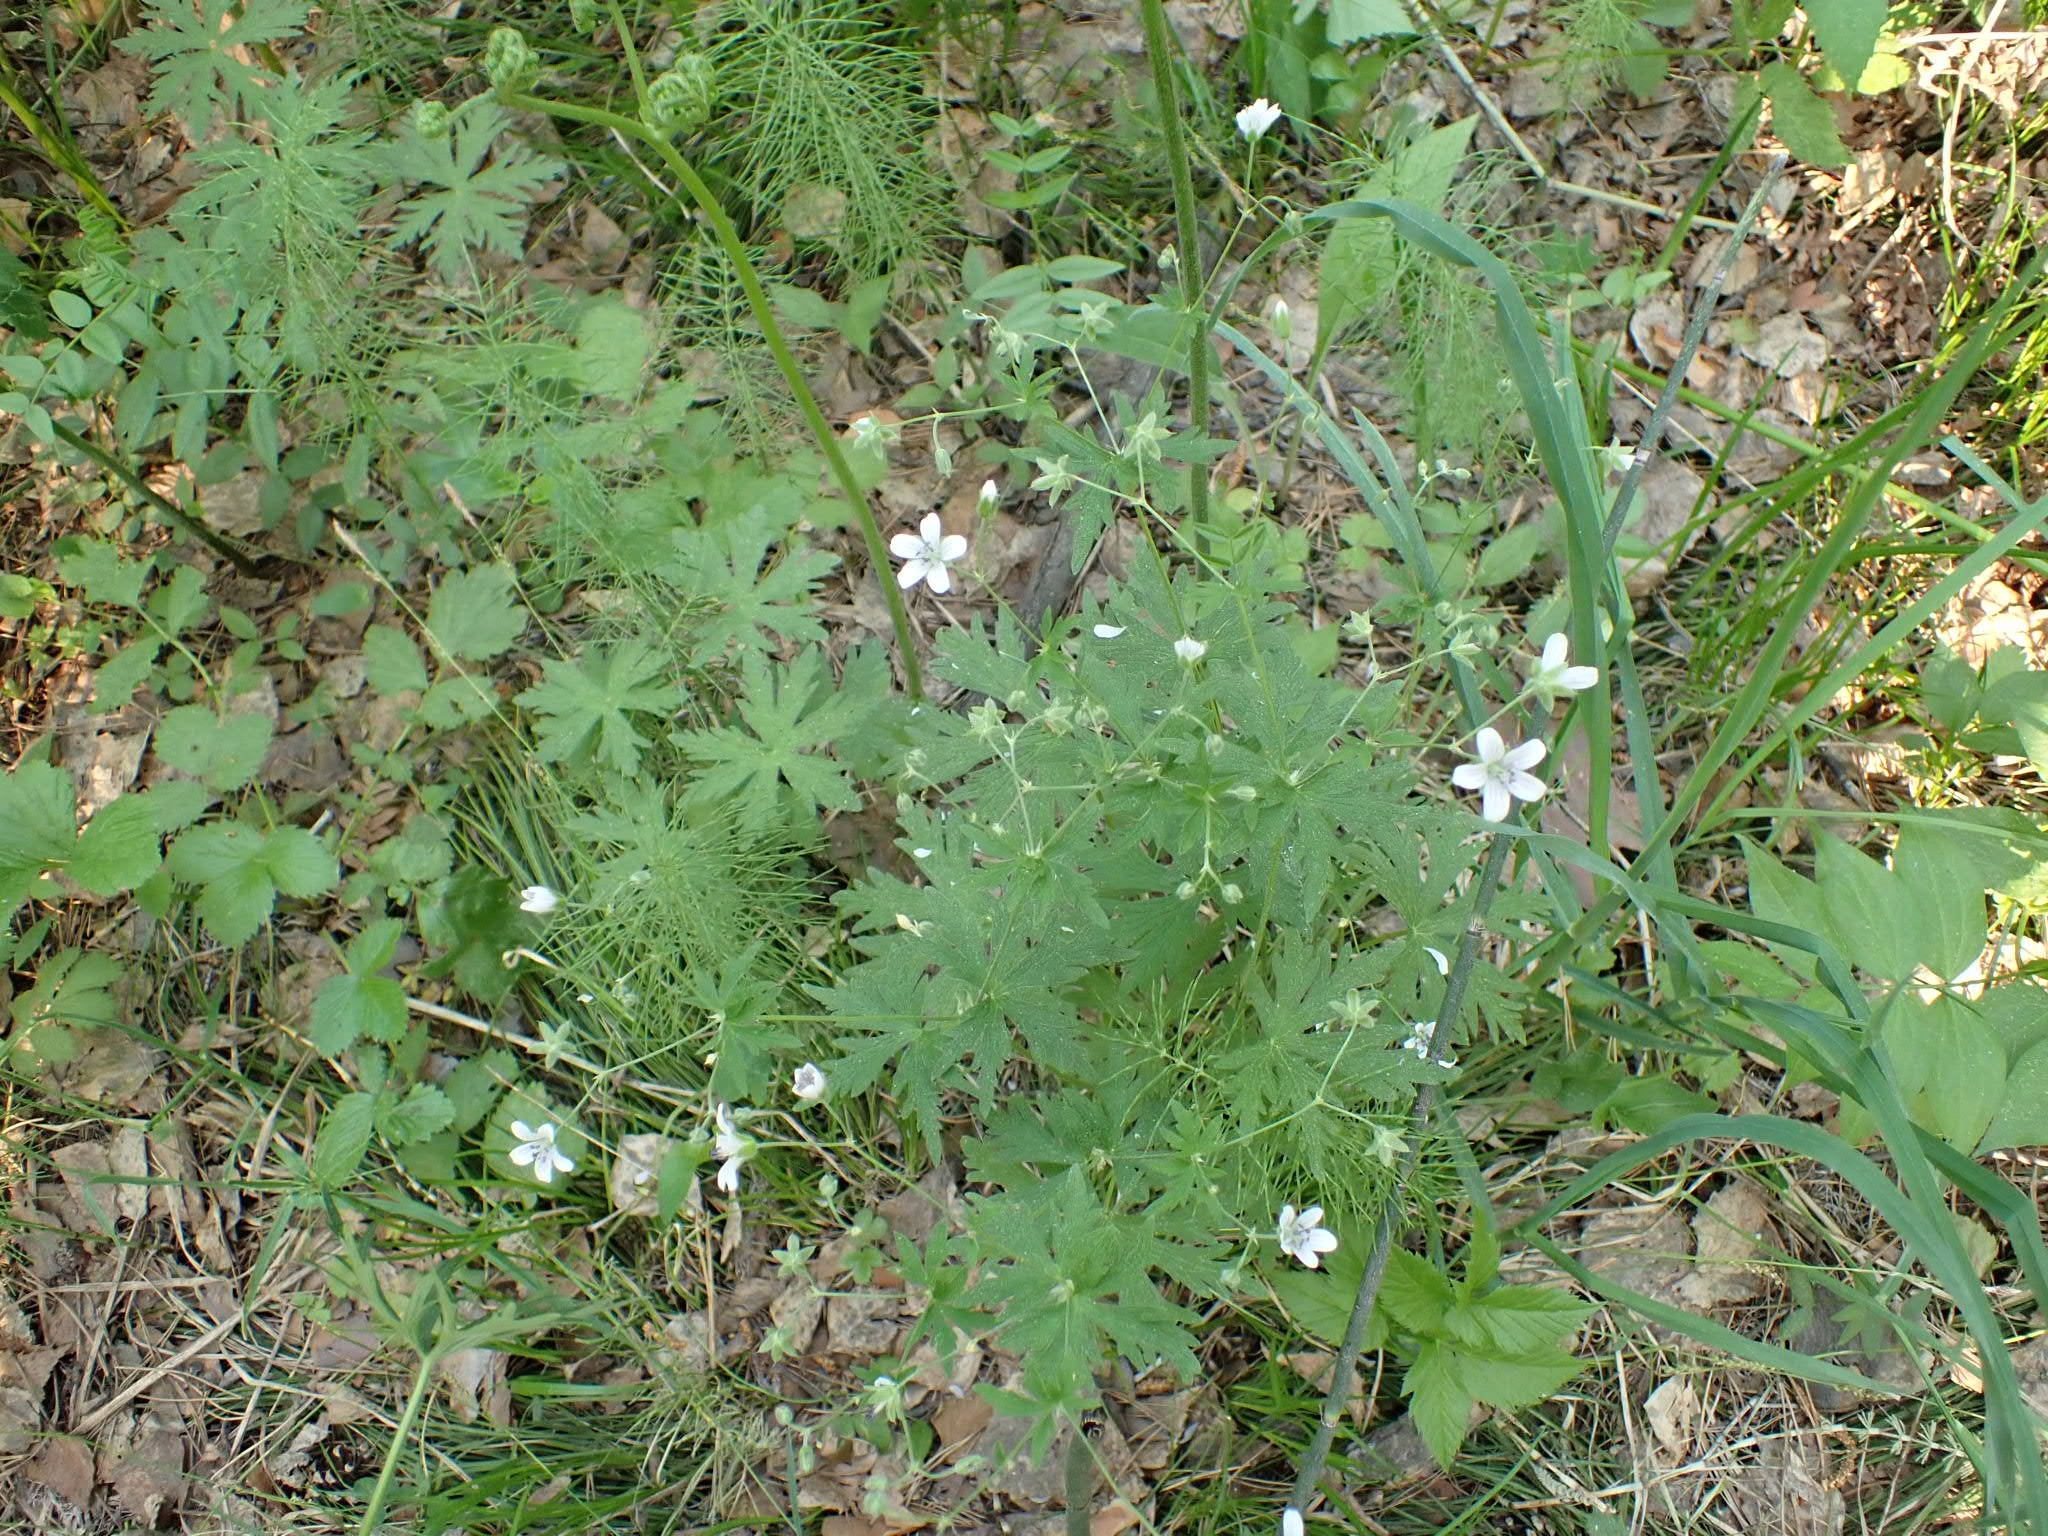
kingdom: Plantae
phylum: Tracheophyta
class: Magnoliopsida
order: Geraniales
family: Geraniaceae
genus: Geranium
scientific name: Geranium pseudosibiricum
